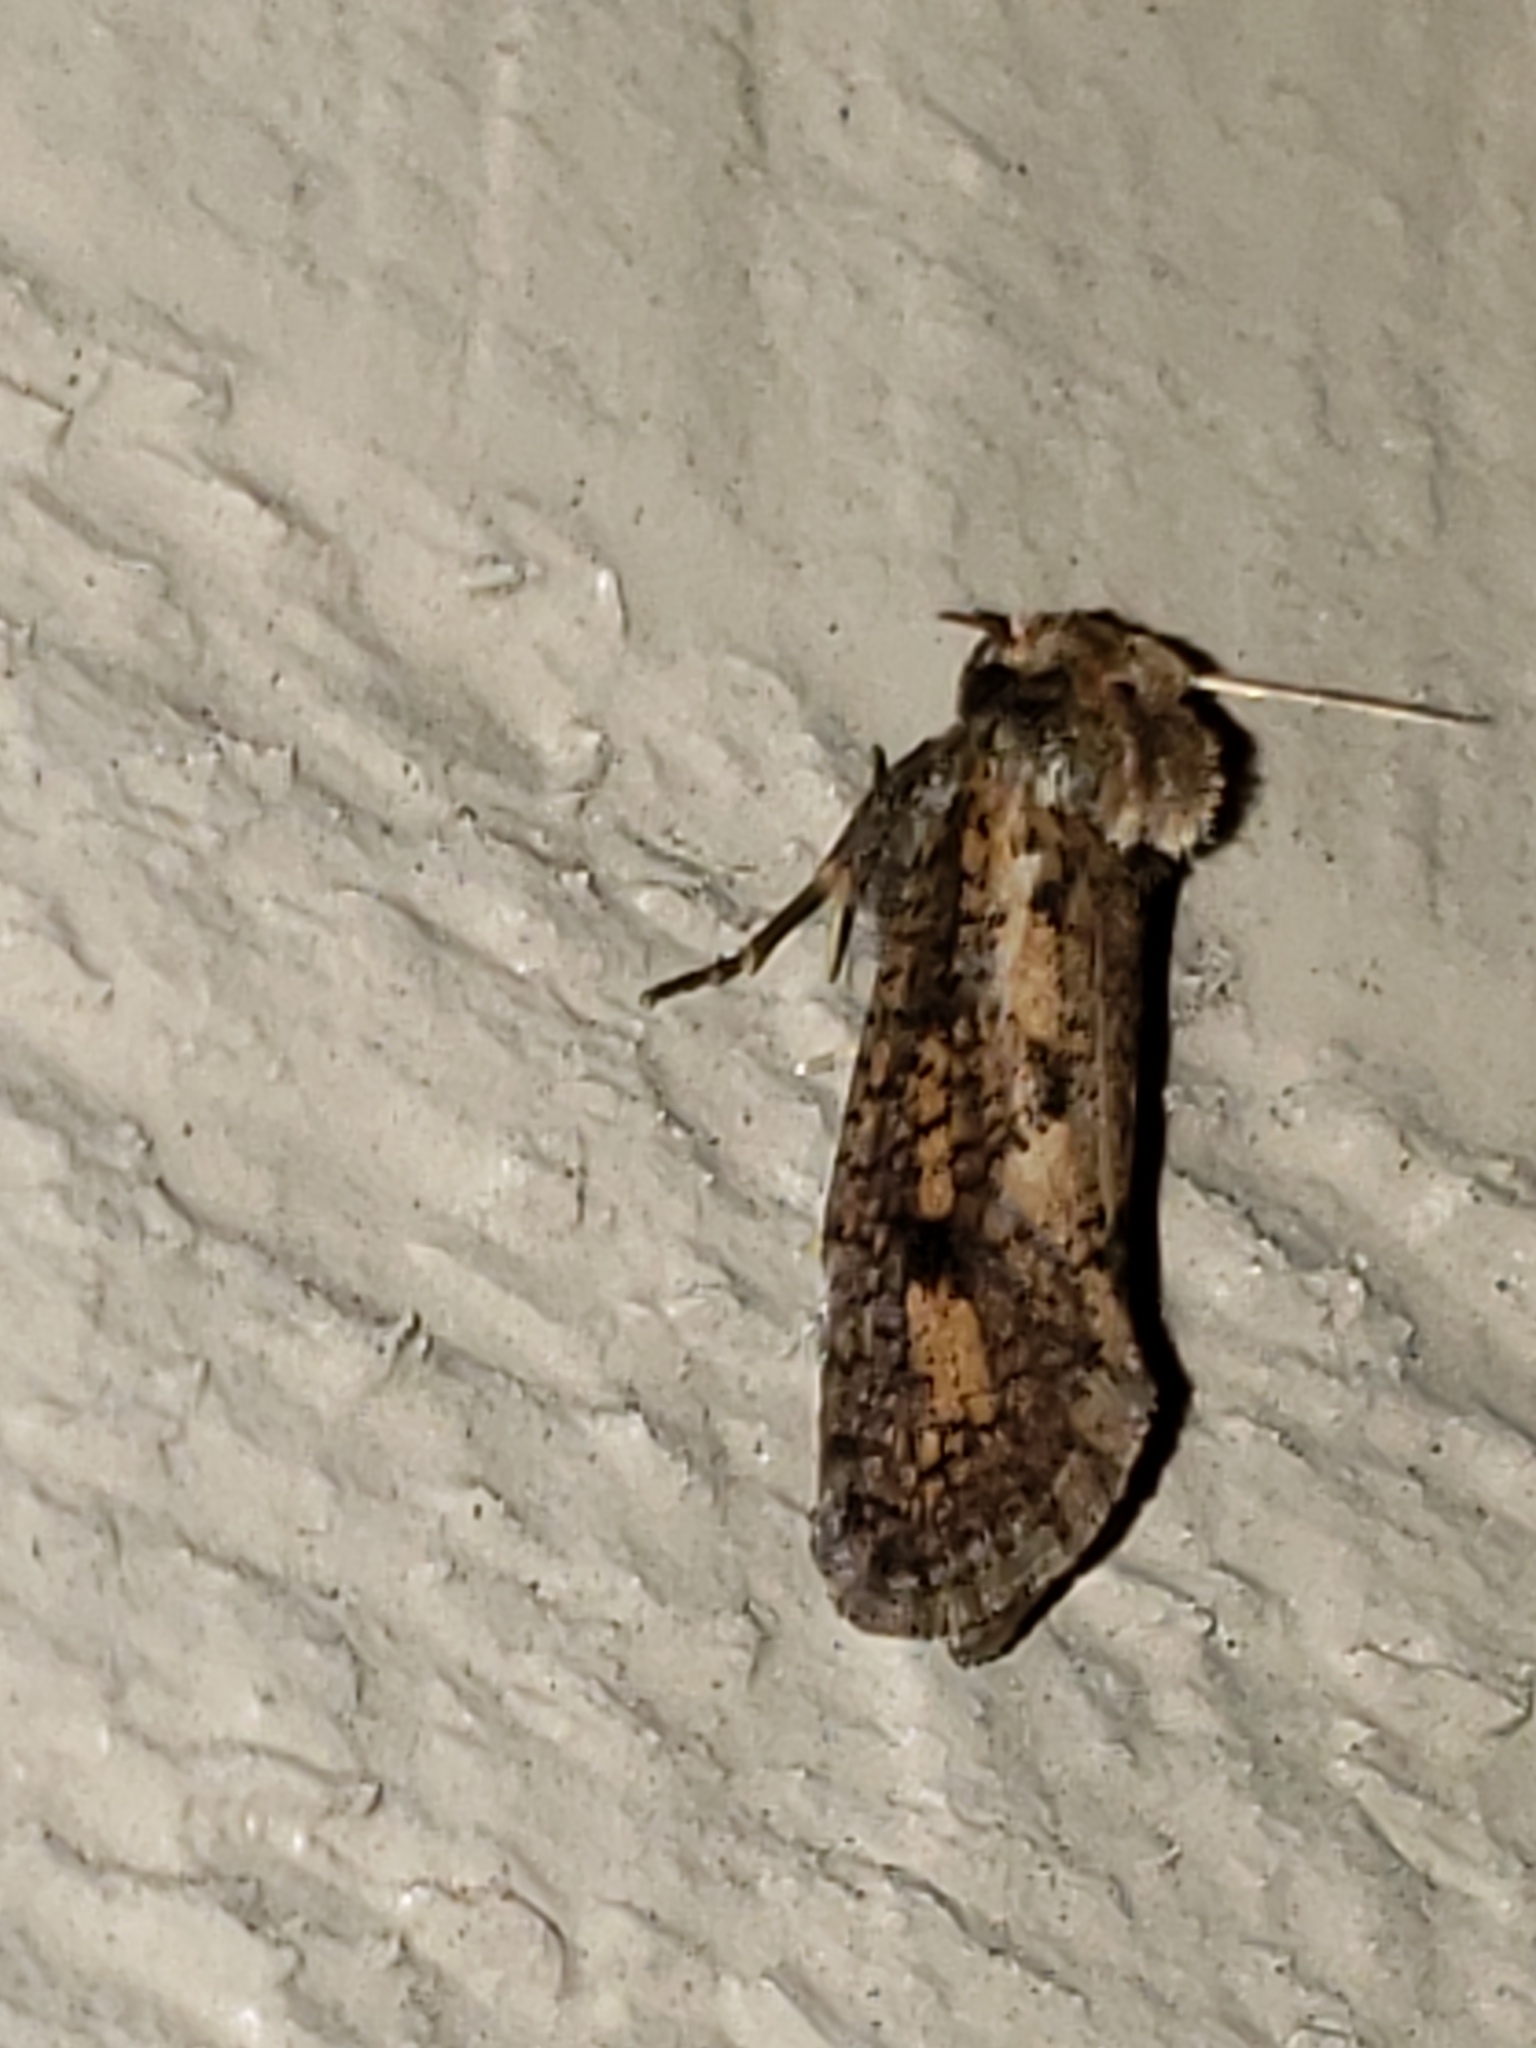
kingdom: Animalia
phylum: Arthropoda
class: Insecta
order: Lepidoptera
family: Tineidae
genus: Acrolophus
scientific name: Acrolophus popeanella
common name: Clemens' grass tubeworm moth
